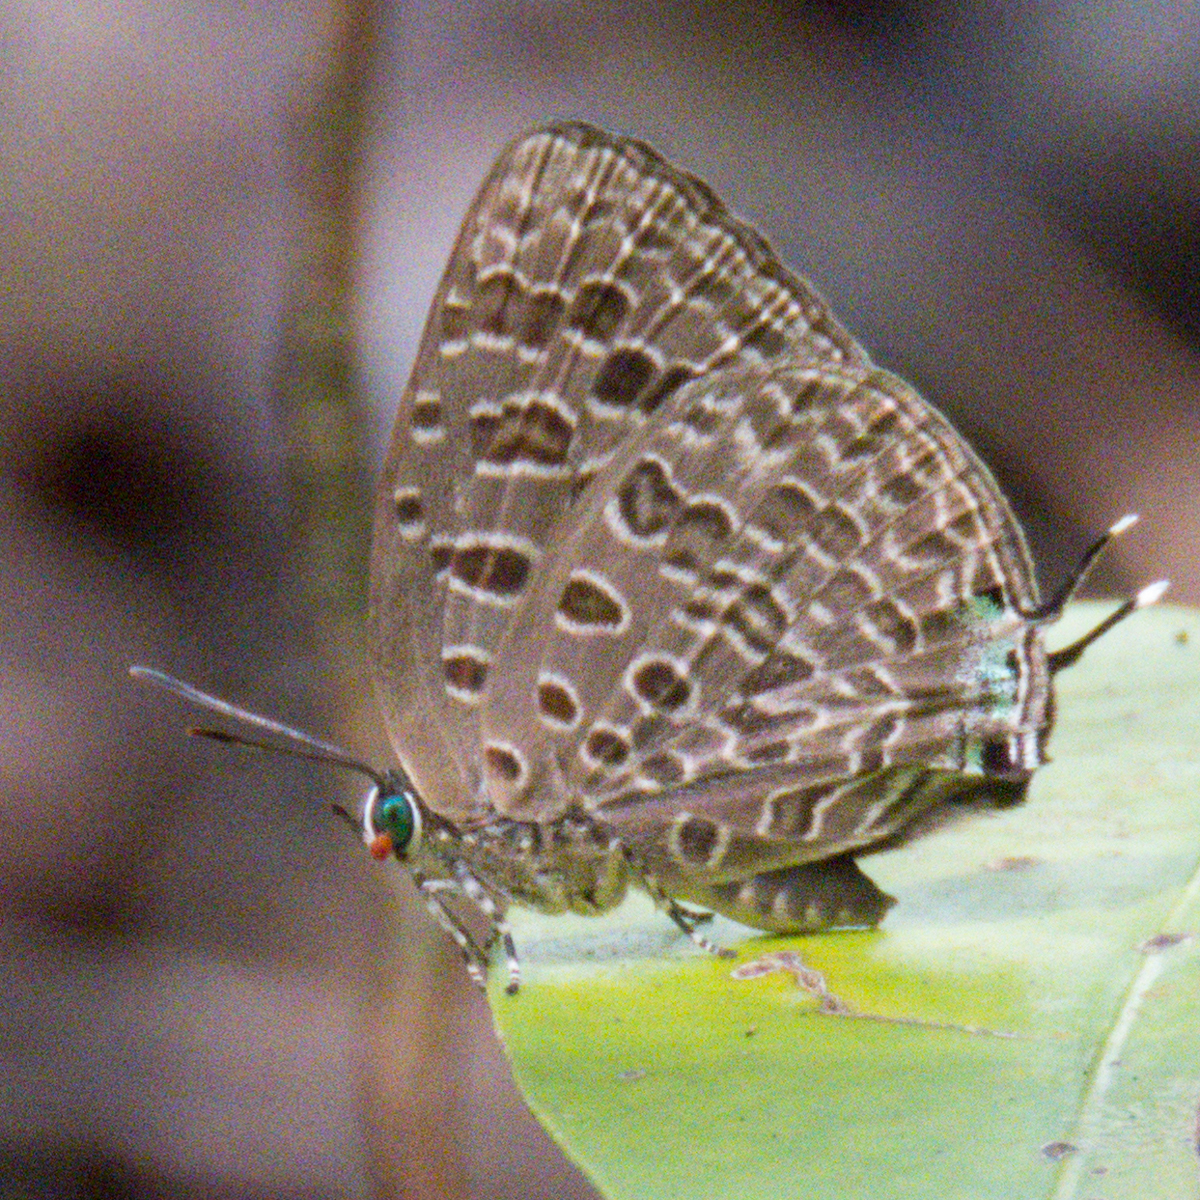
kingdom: Animalia
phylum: Arthropoda
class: Insecta
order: Lepidoptera
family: Lycaenidae
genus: Arhopala
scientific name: Arhopala alitaeus
